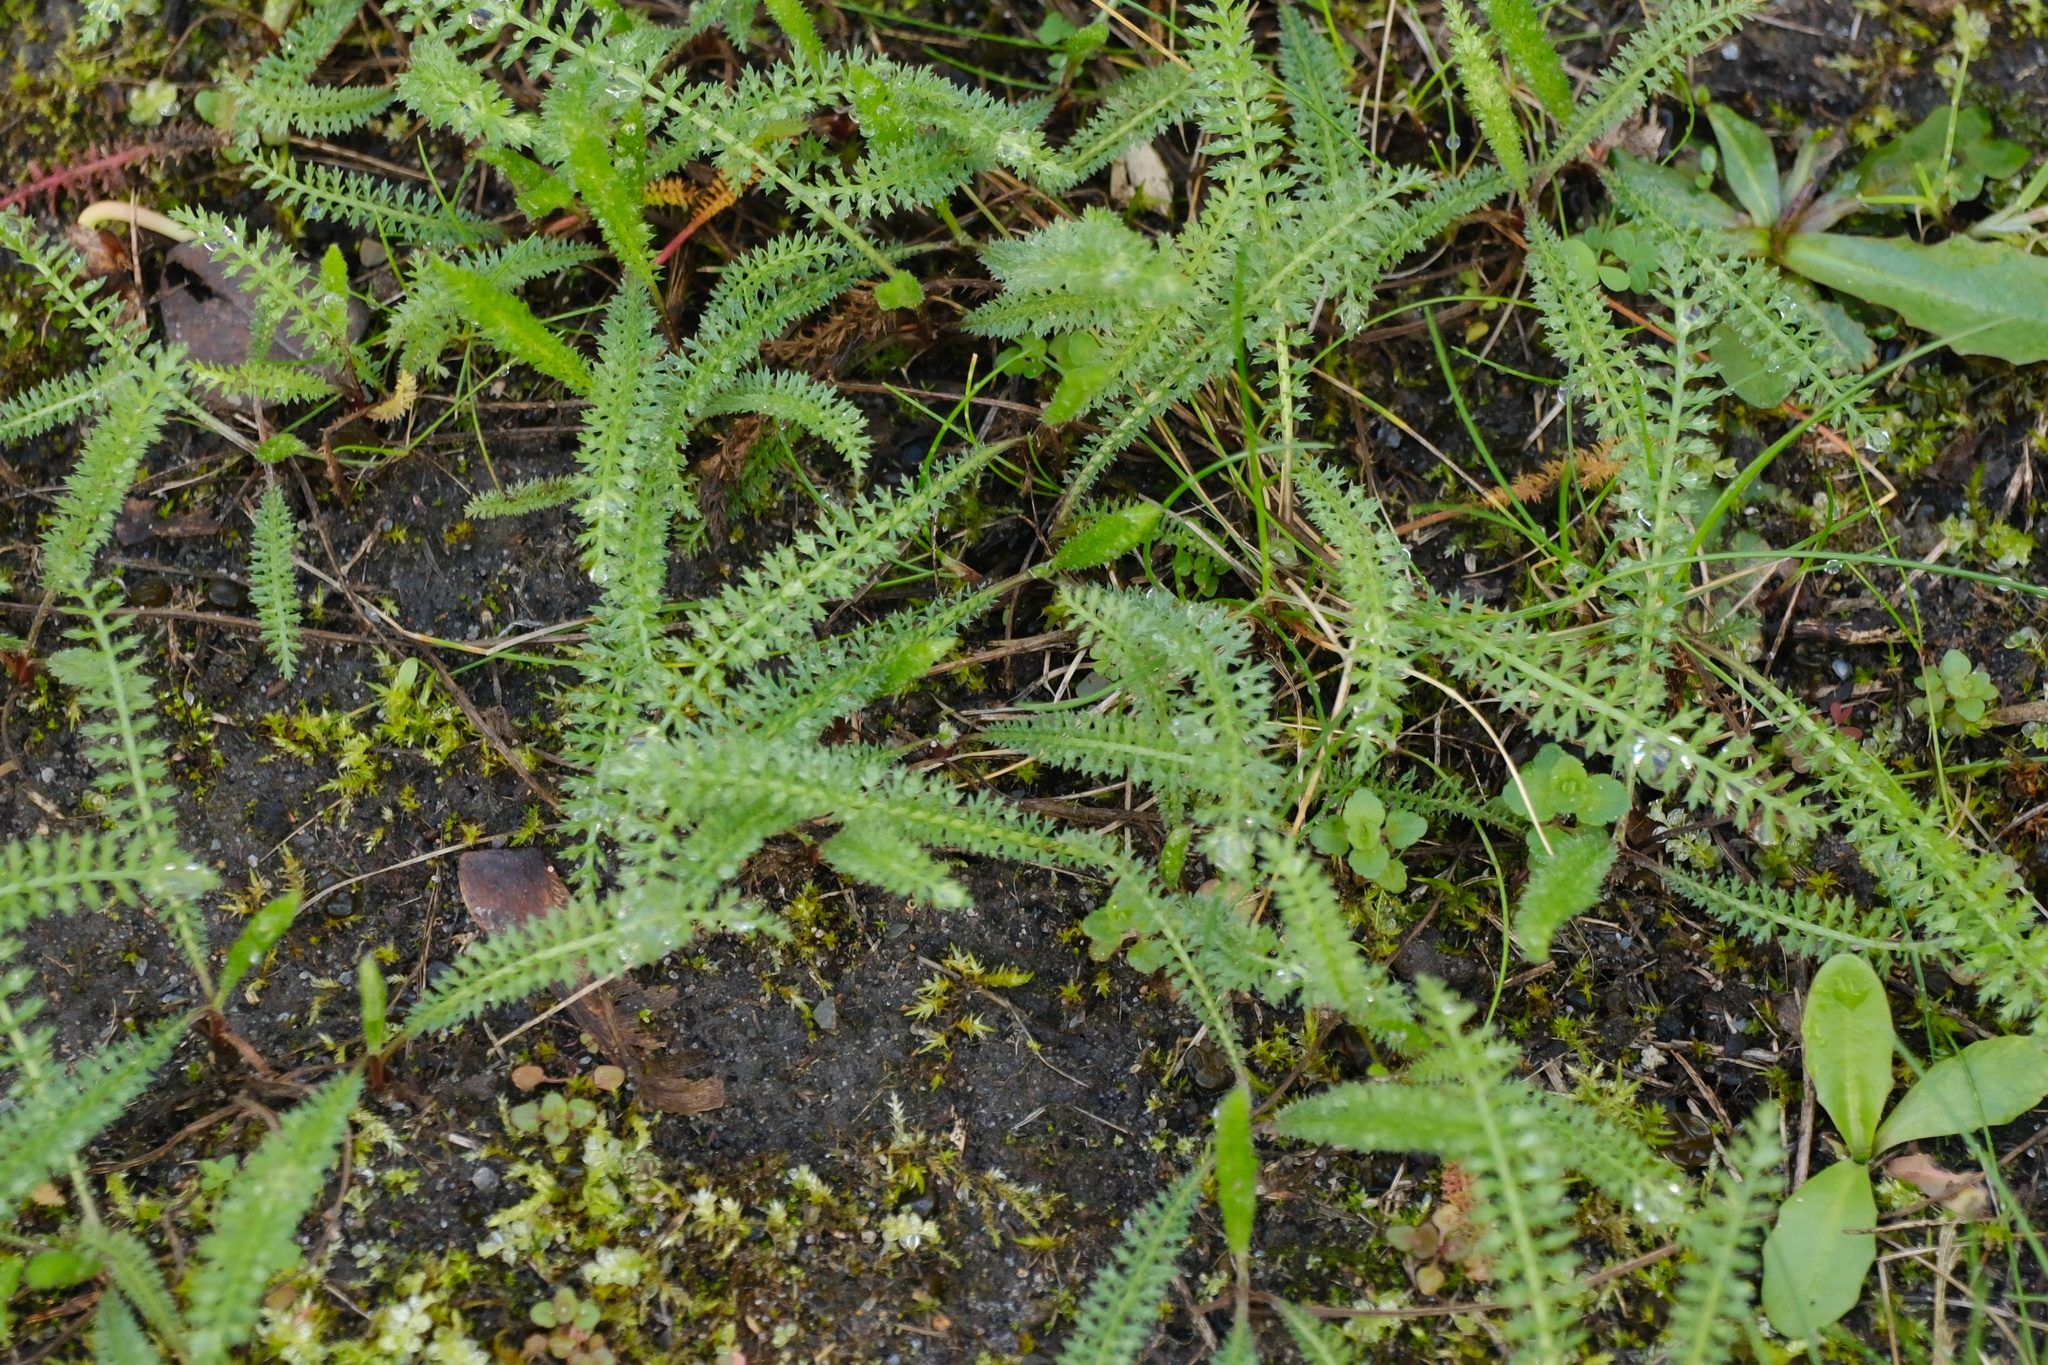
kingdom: Plantae
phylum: Tracheophyta
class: Magnoliopsida
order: Asterales
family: Asteraceae
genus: Achillea
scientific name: Achillea millefolium
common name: Yarrow
